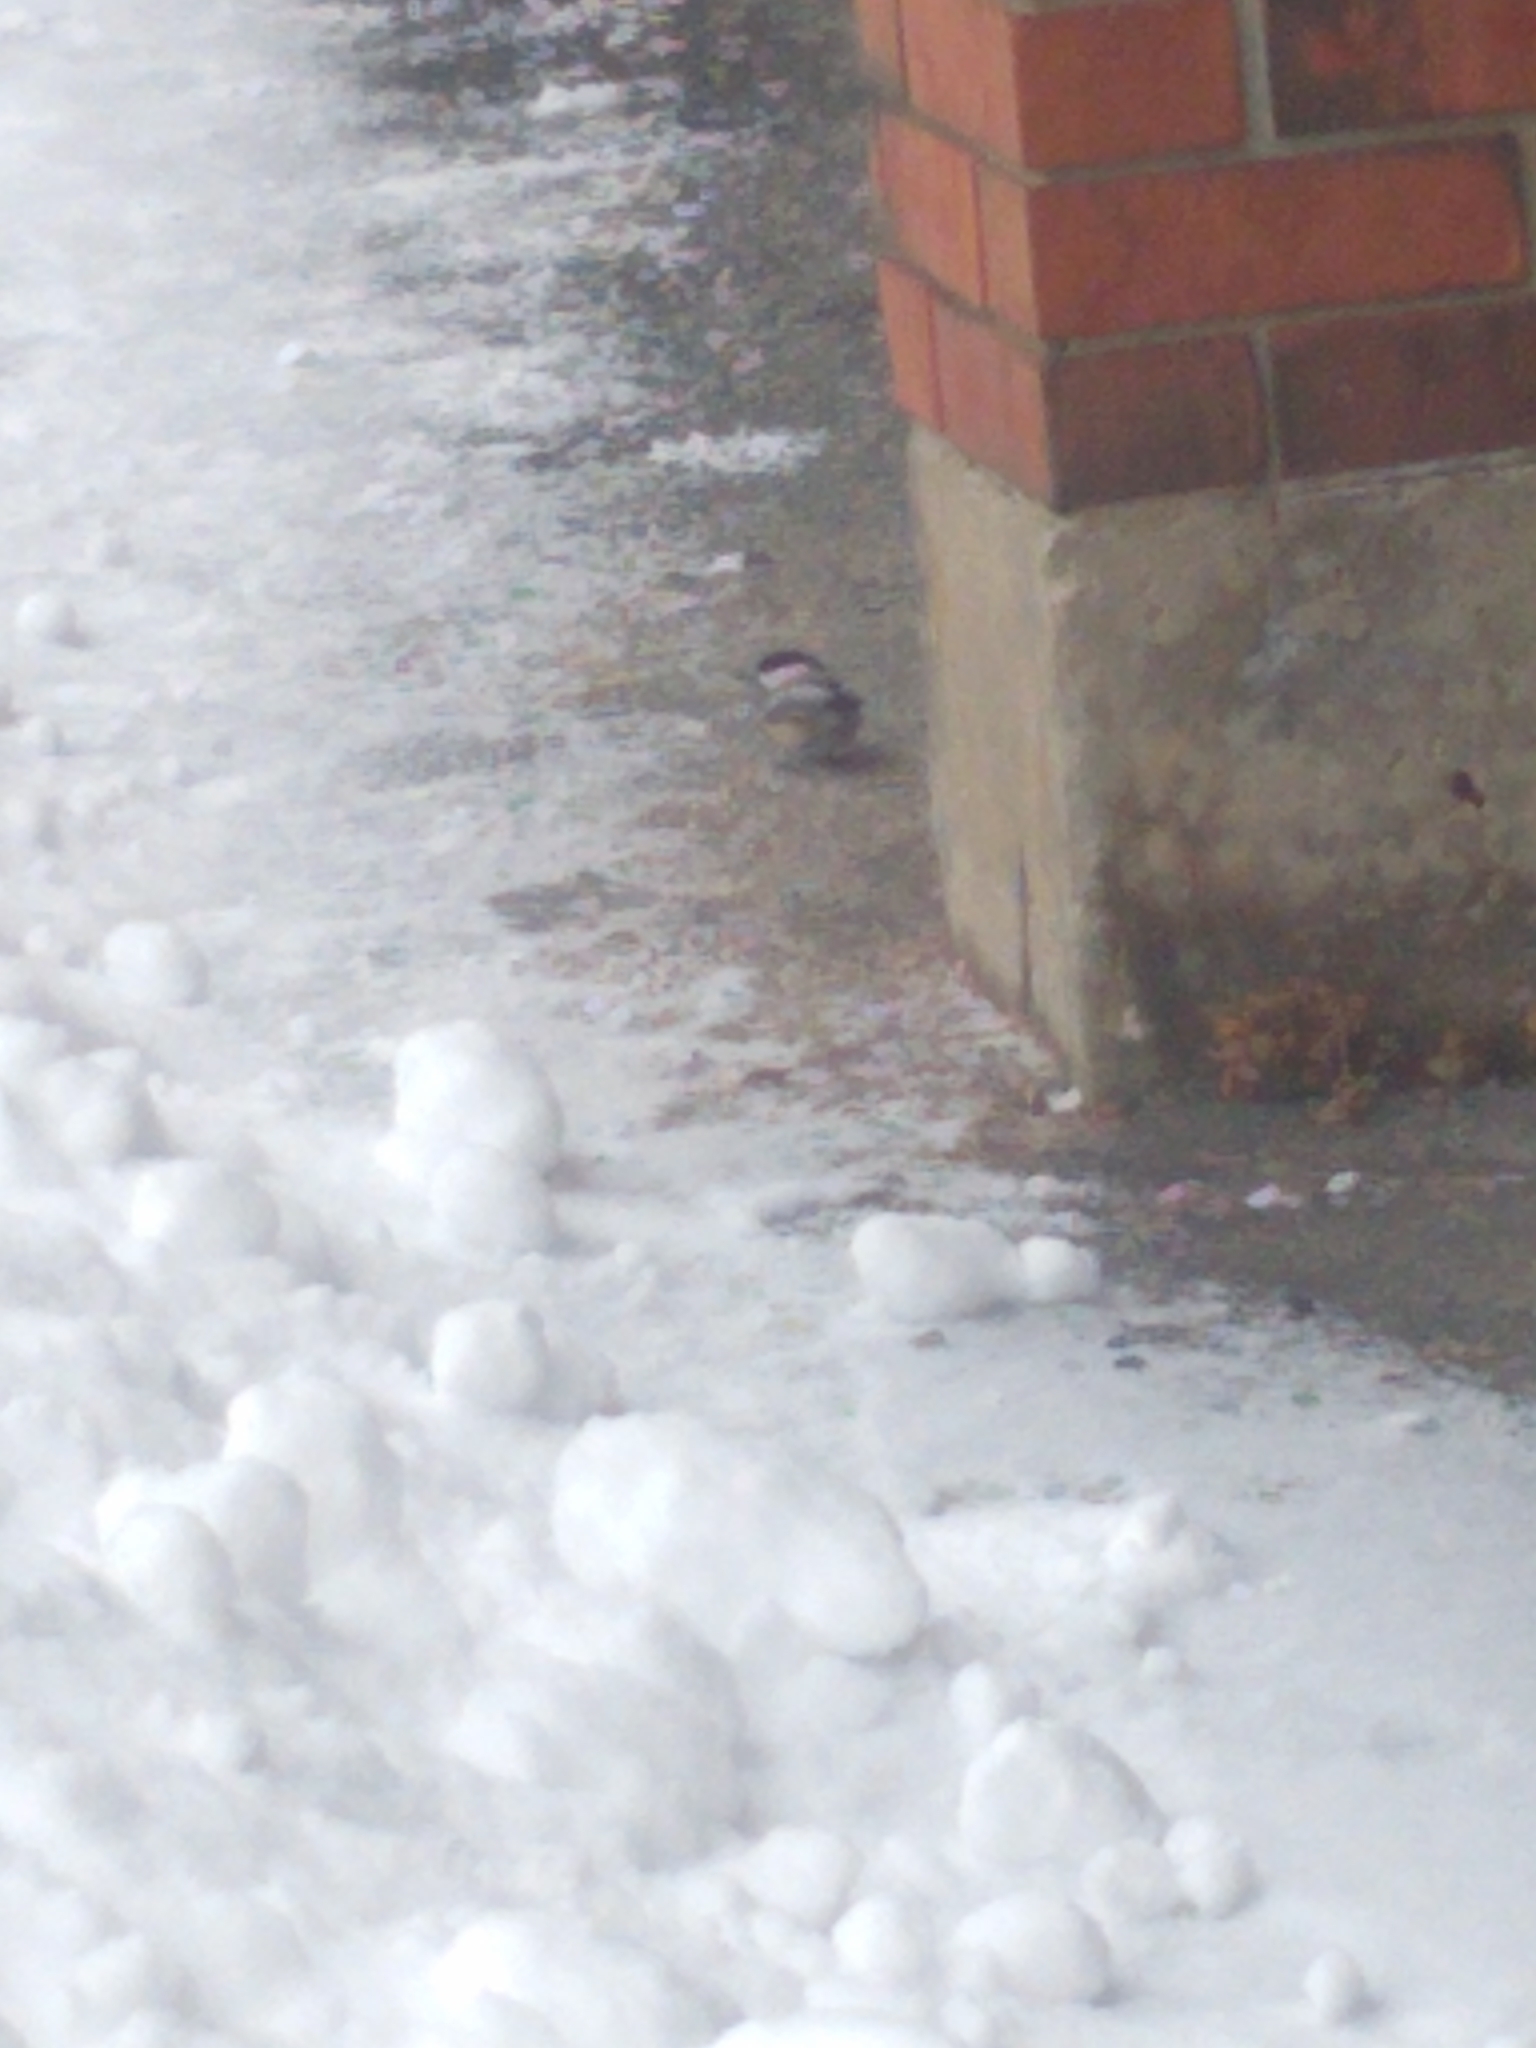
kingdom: Animalia
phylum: Chordata
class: Aves
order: Passeriformes
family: Paridae
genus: Poecile
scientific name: Poecile atricapillus
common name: Black-capped chickadee
